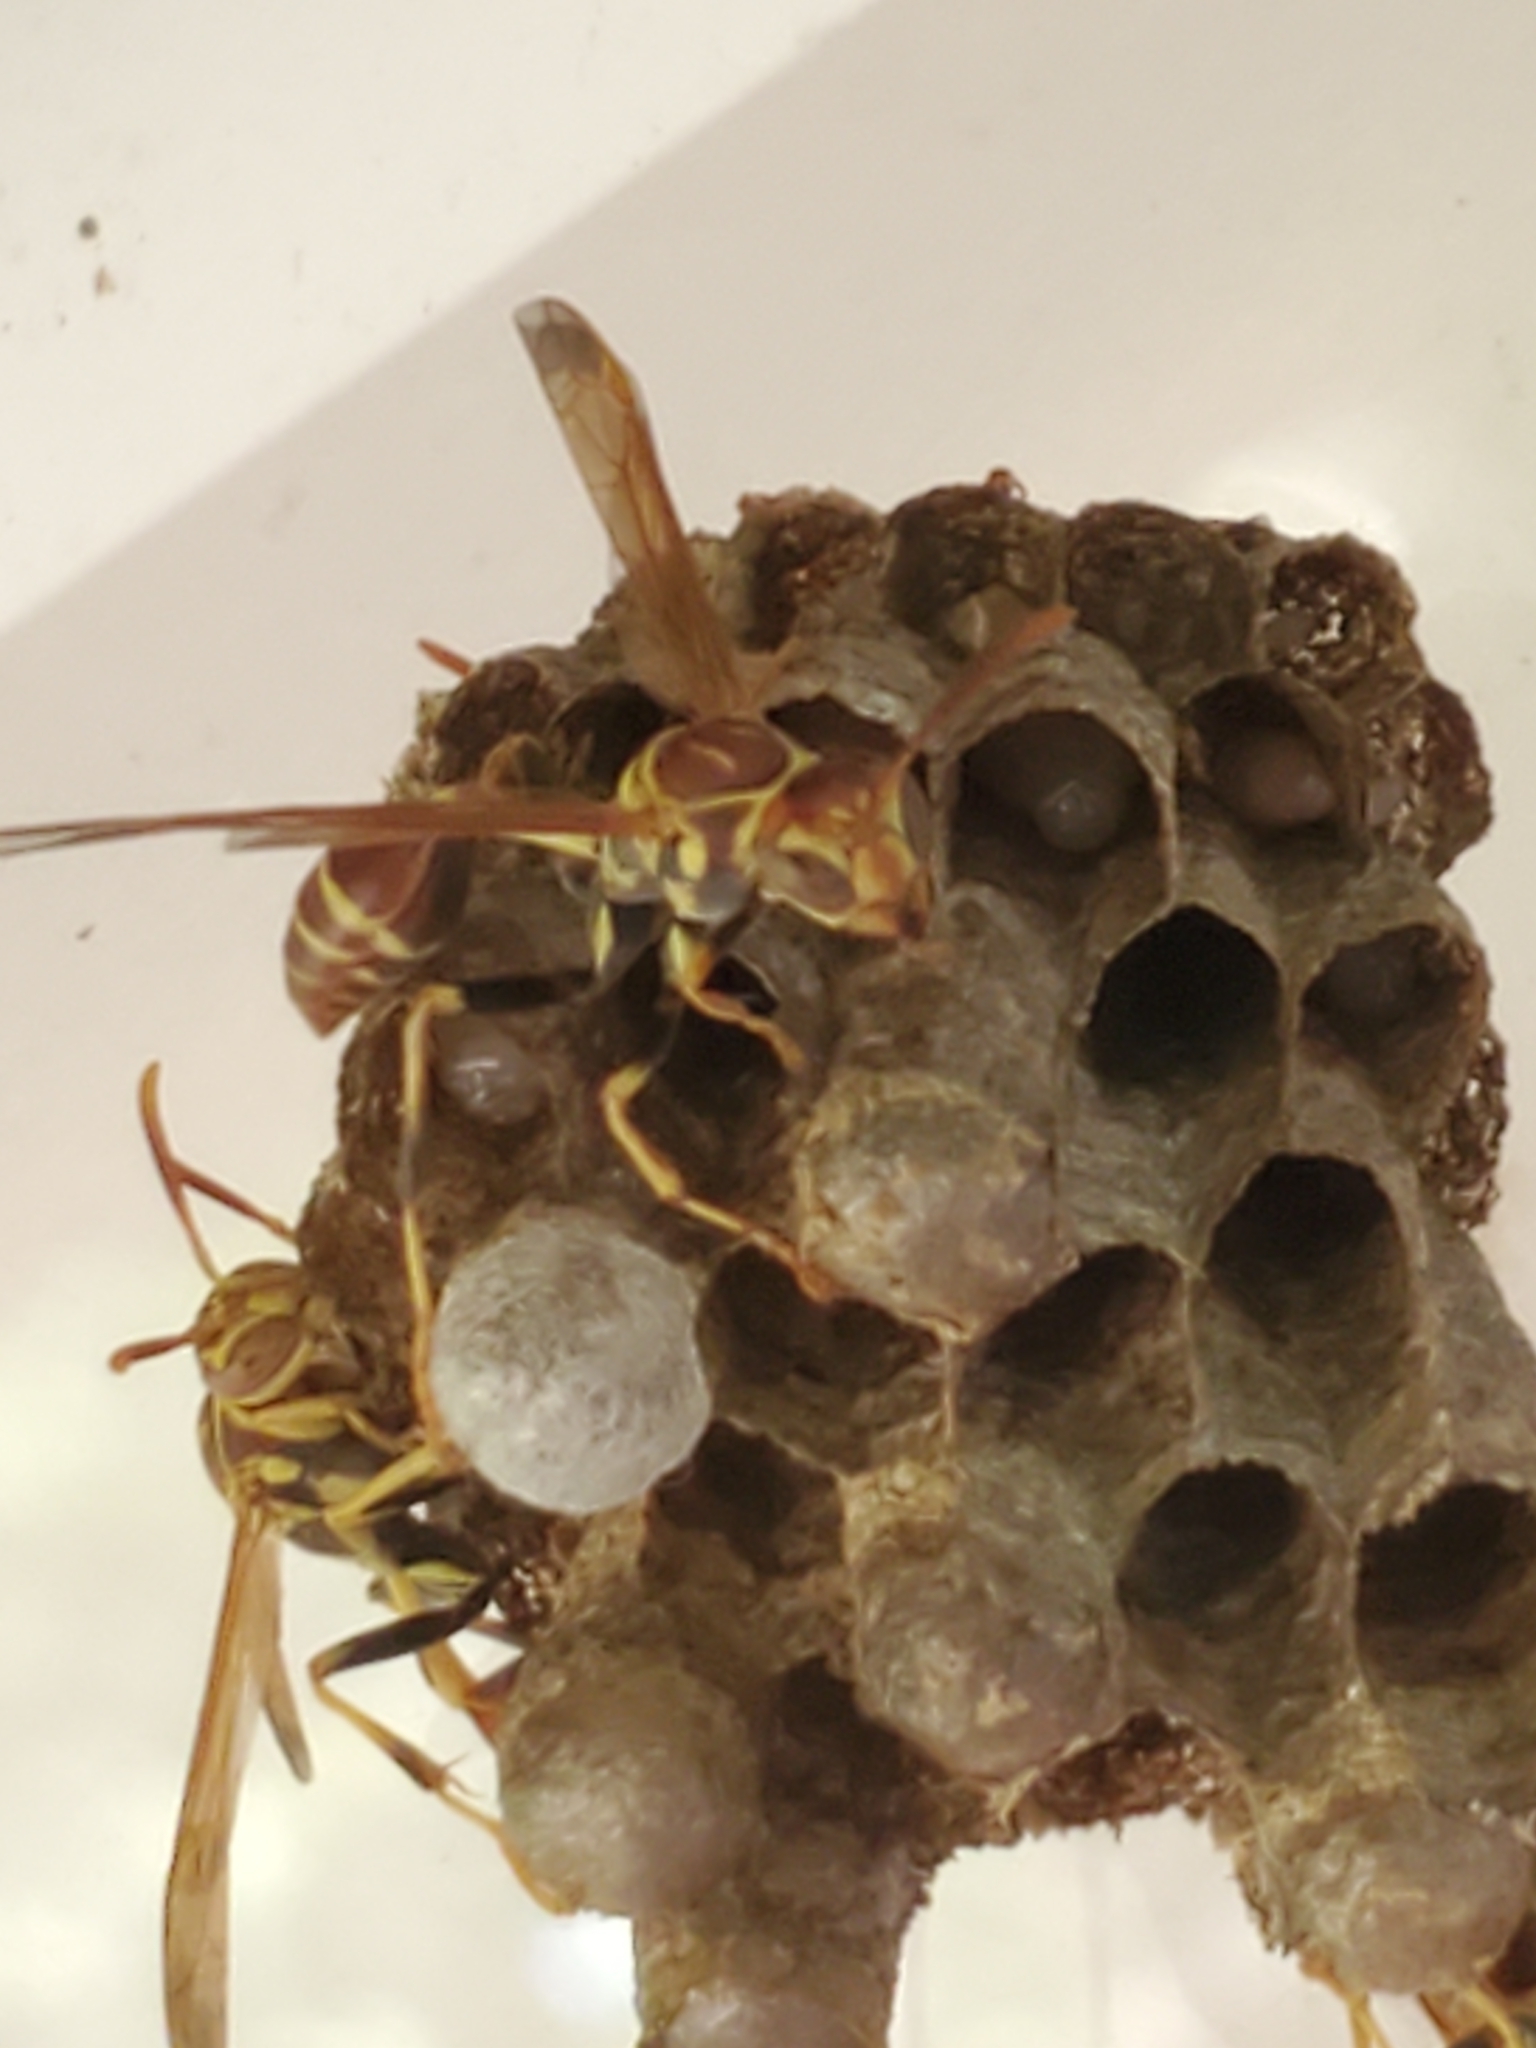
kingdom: Animalia
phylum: Arthropoda
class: Insecta
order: Hymenoptera
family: Vespidae
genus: Mischocyttarus
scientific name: Mischocyttarus mexicanus
